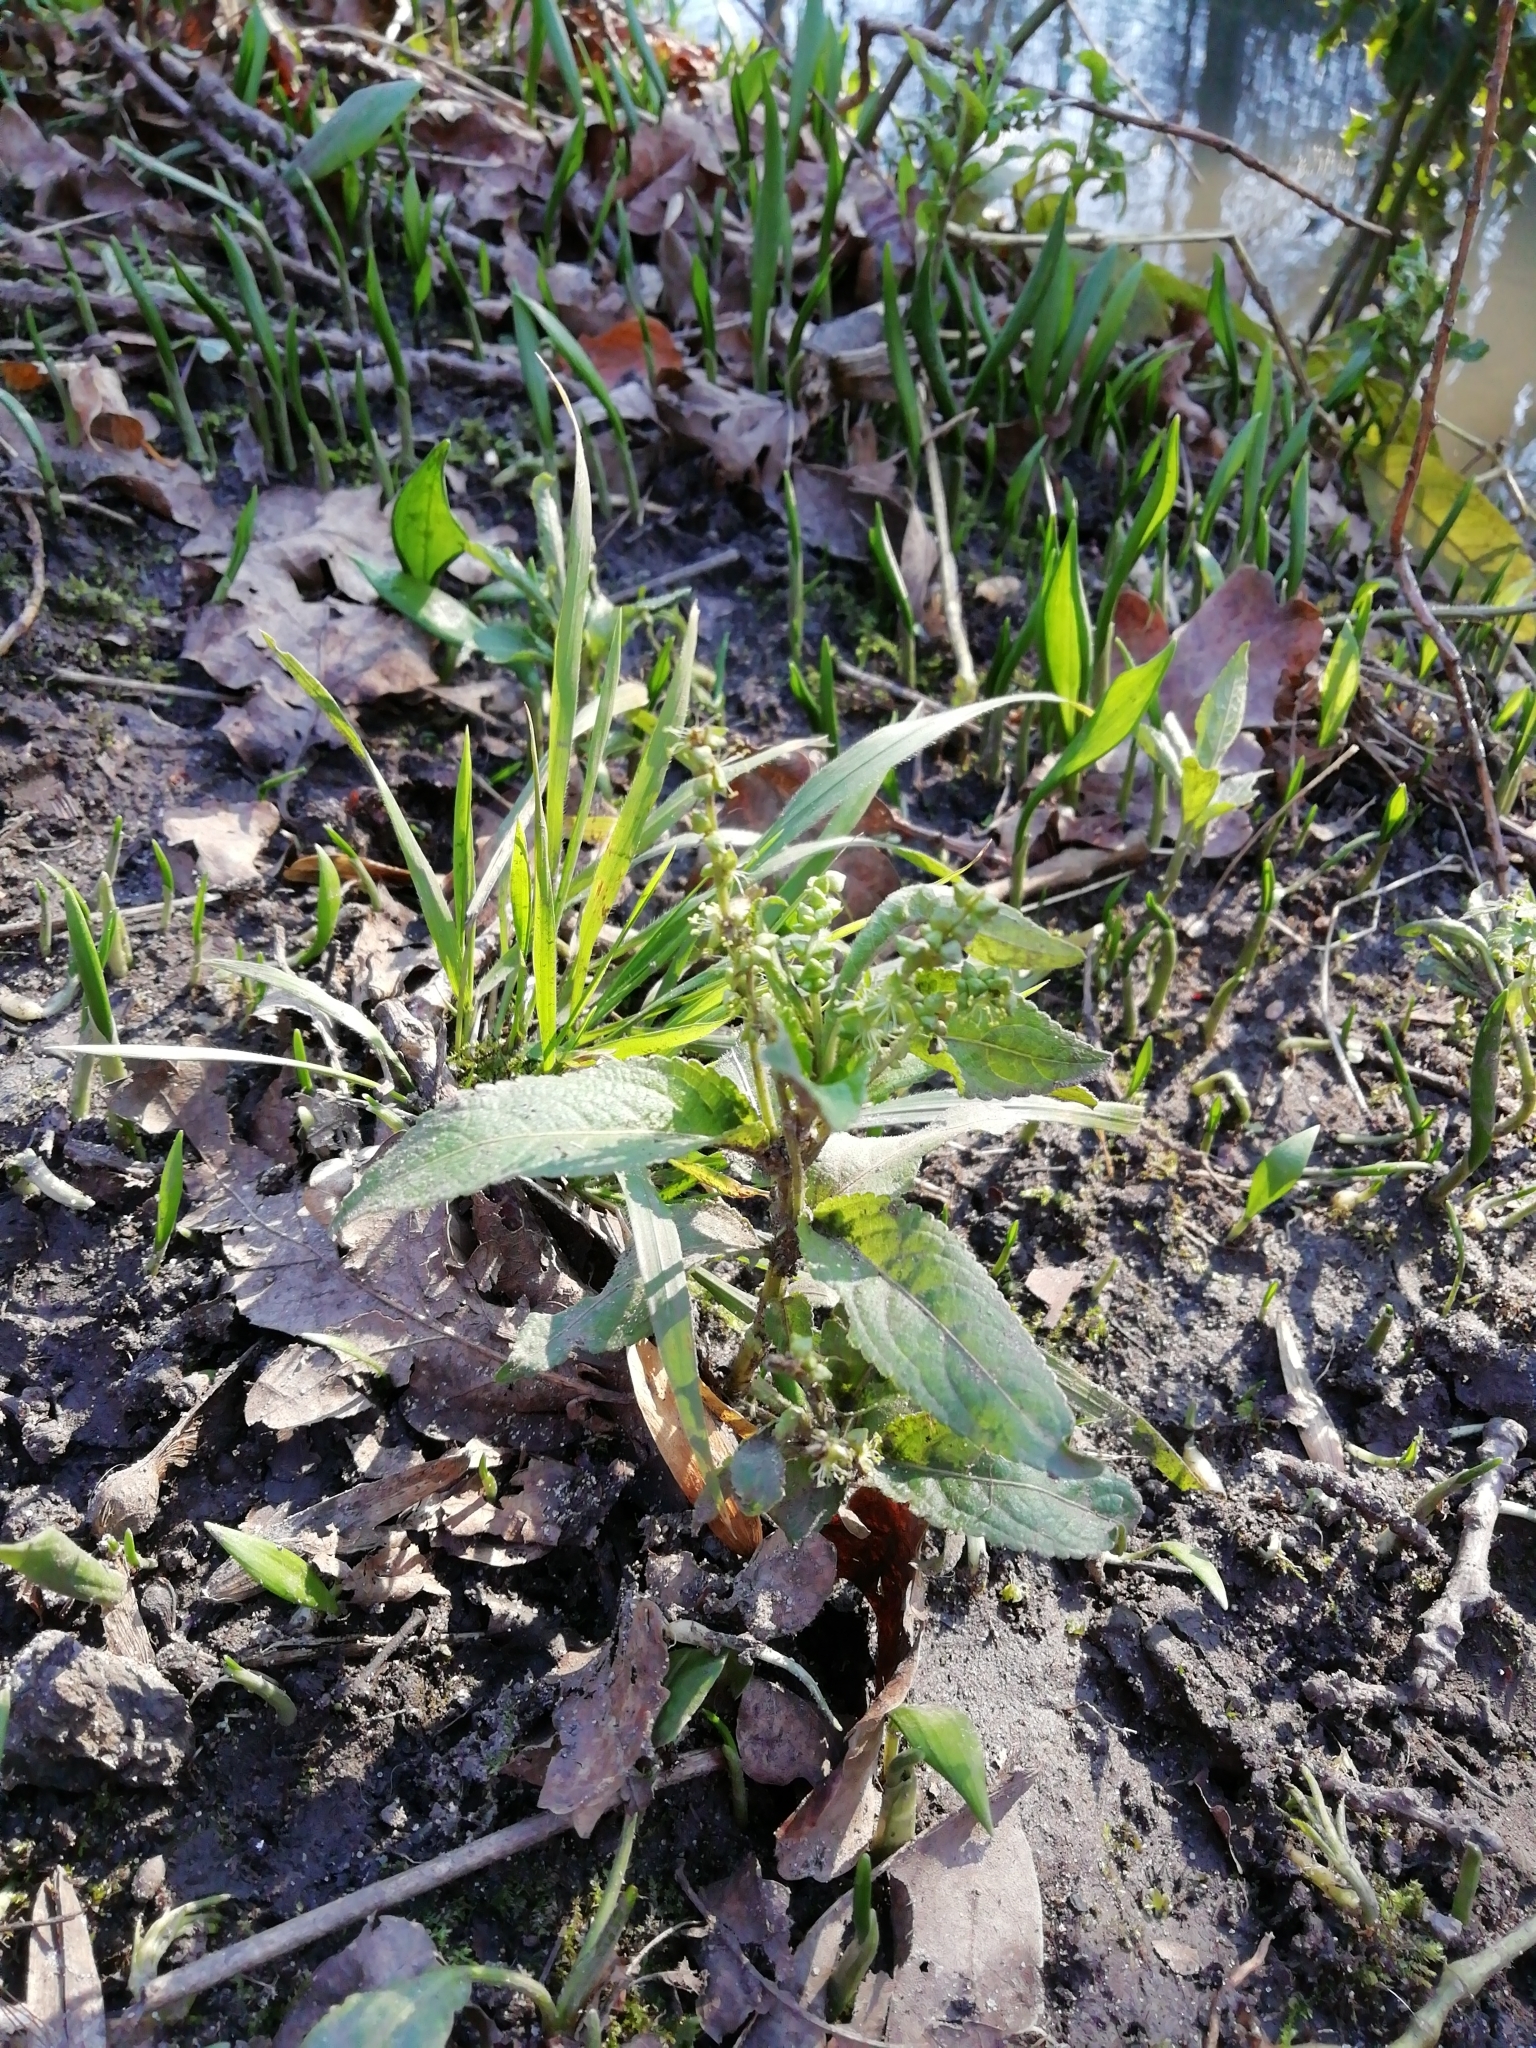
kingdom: Plantae
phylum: Tracheophyta
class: Magnoliopsida
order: Malpighiales
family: Euphorbiaceae
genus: Mercurialis
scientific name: Mercurialis perennis
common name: Dog mercury
